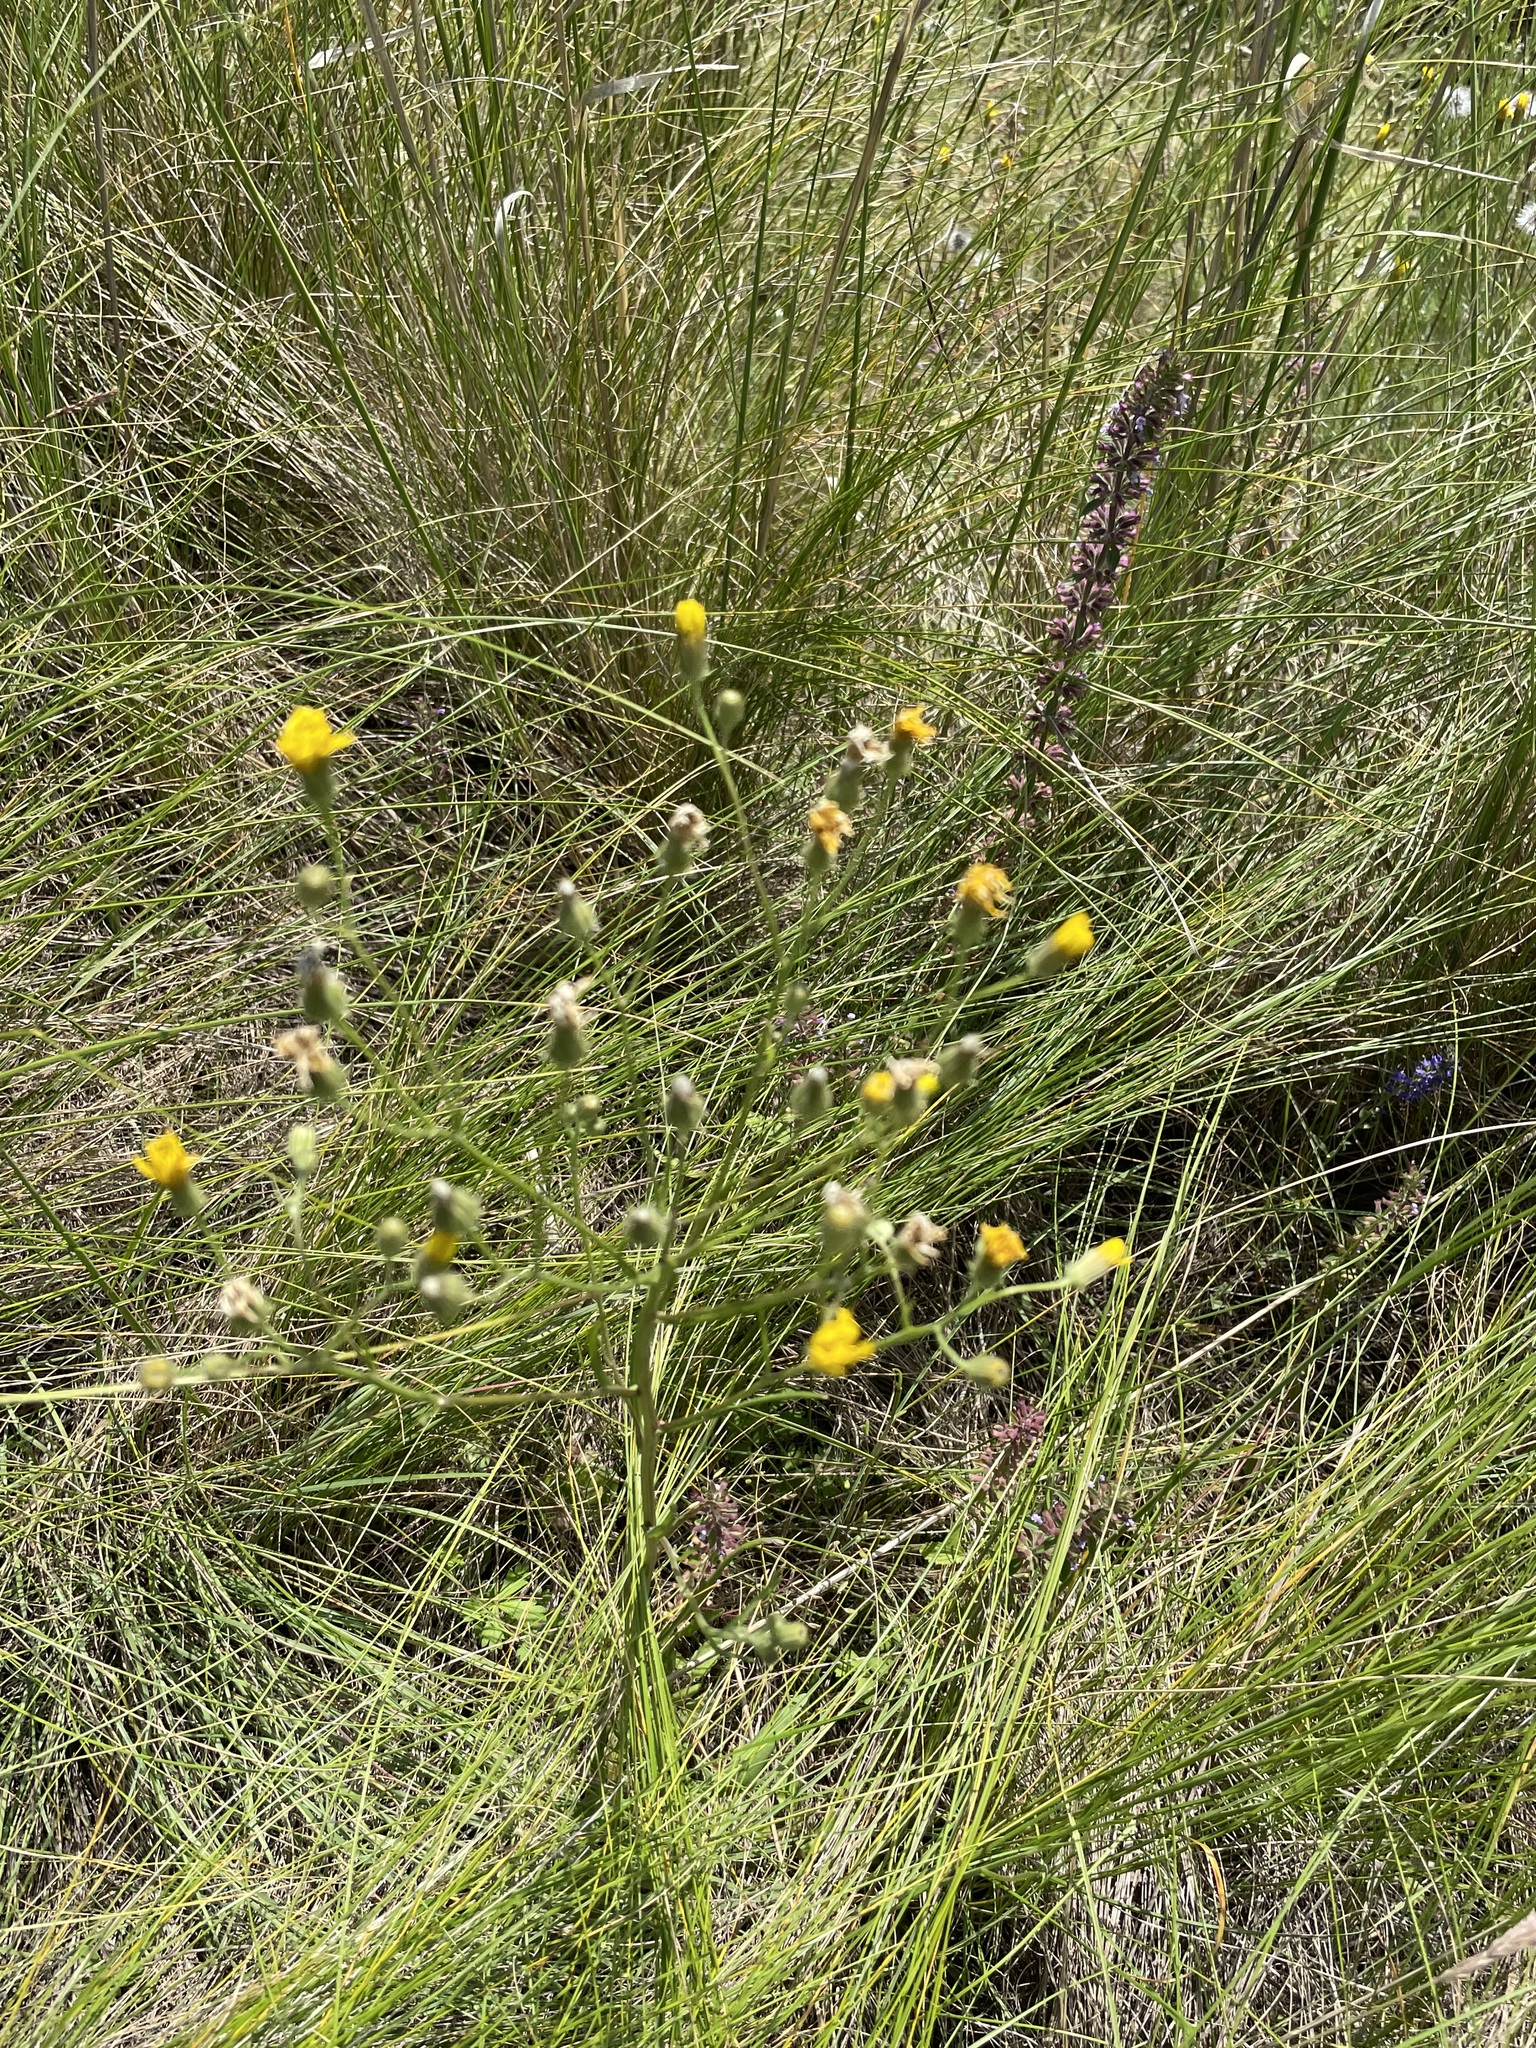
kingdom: Plantae
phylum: Tracheophyta
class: Magnoliopsida
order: Asterales
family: Asteraceae
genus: Crepis
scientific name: Crepis tectorum
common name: Narrow-leaved hawk's-beard
